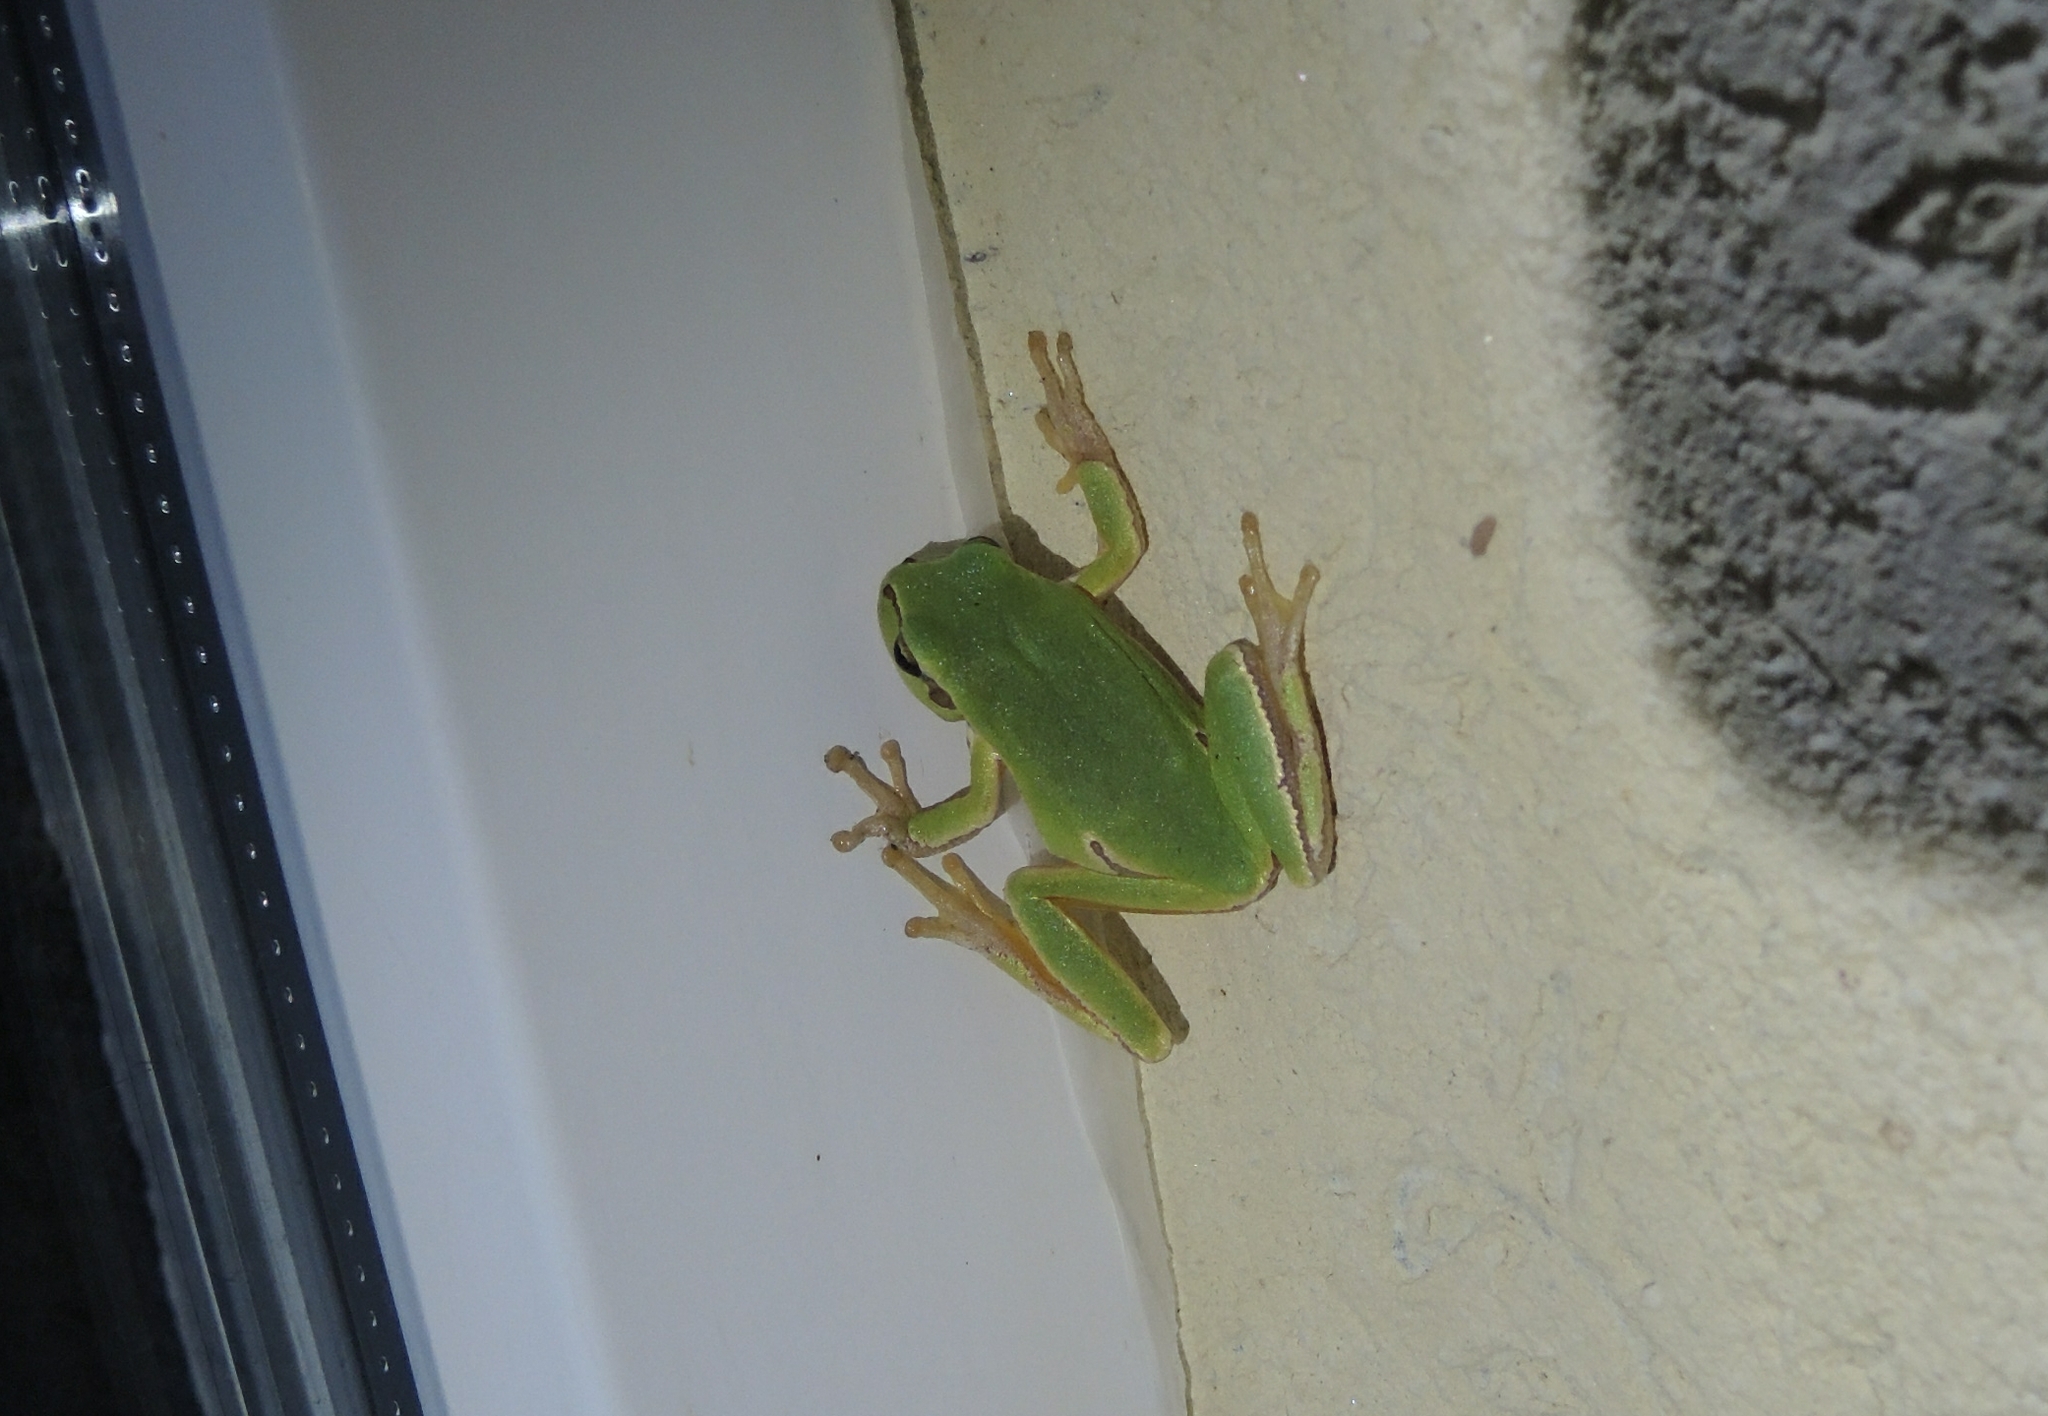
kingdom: Animalia
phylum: Chordata
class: Amphibia
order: Anura
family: Hylidae
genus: Hyla
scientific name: Hyla orientalis
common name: Caucasian treefrog
